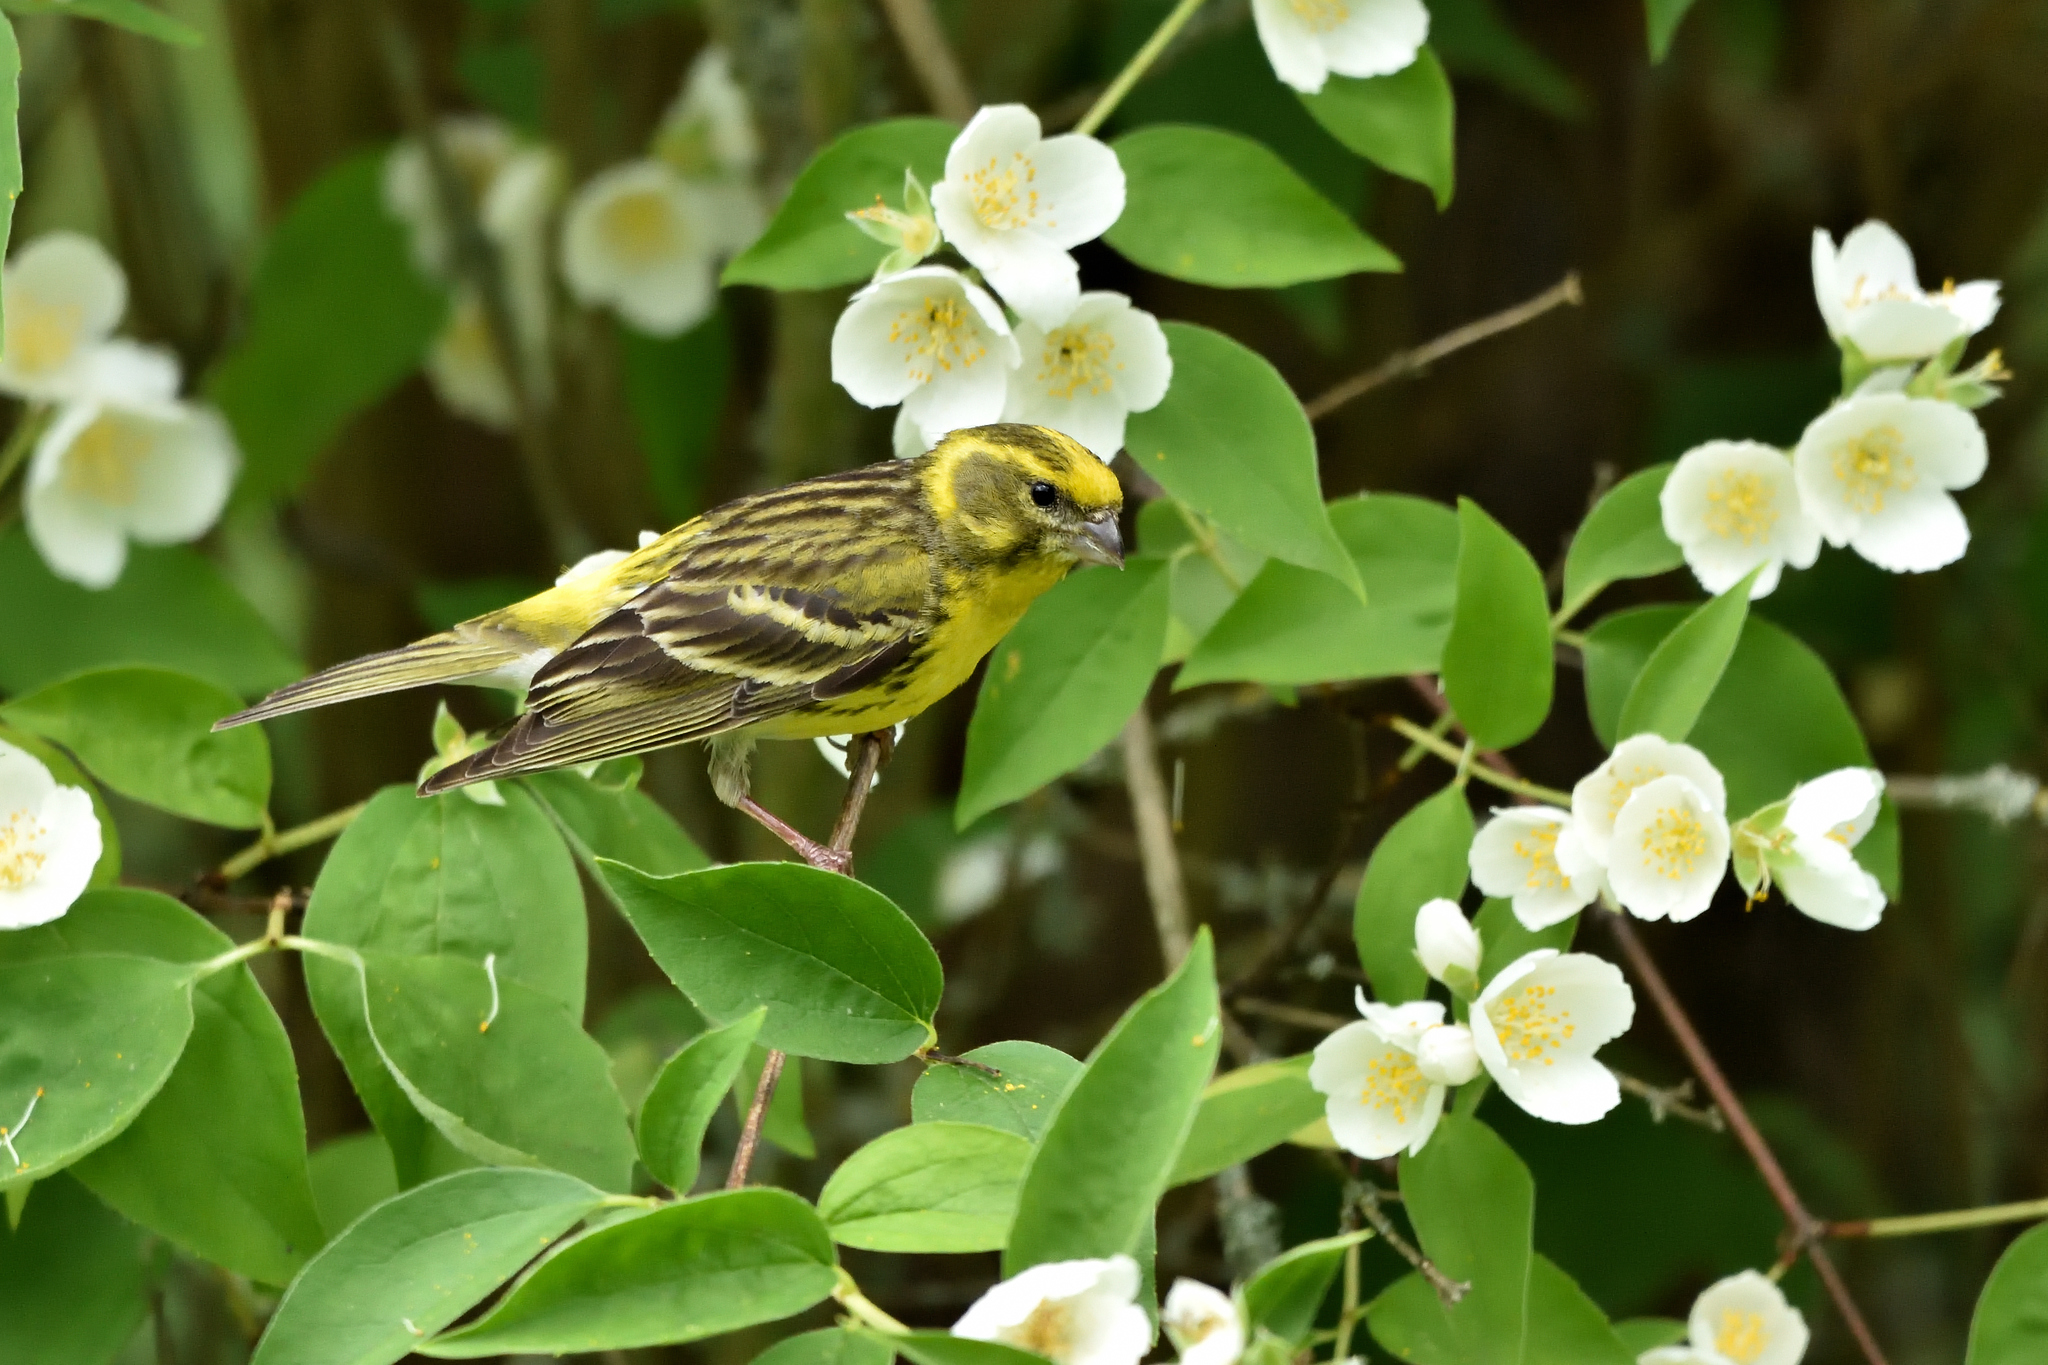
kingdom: Animalia
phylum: Chordata
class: Aves
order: Passeriformes
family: Fringillidae
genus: Serinus
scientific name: Serinus serinus
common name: European serin
